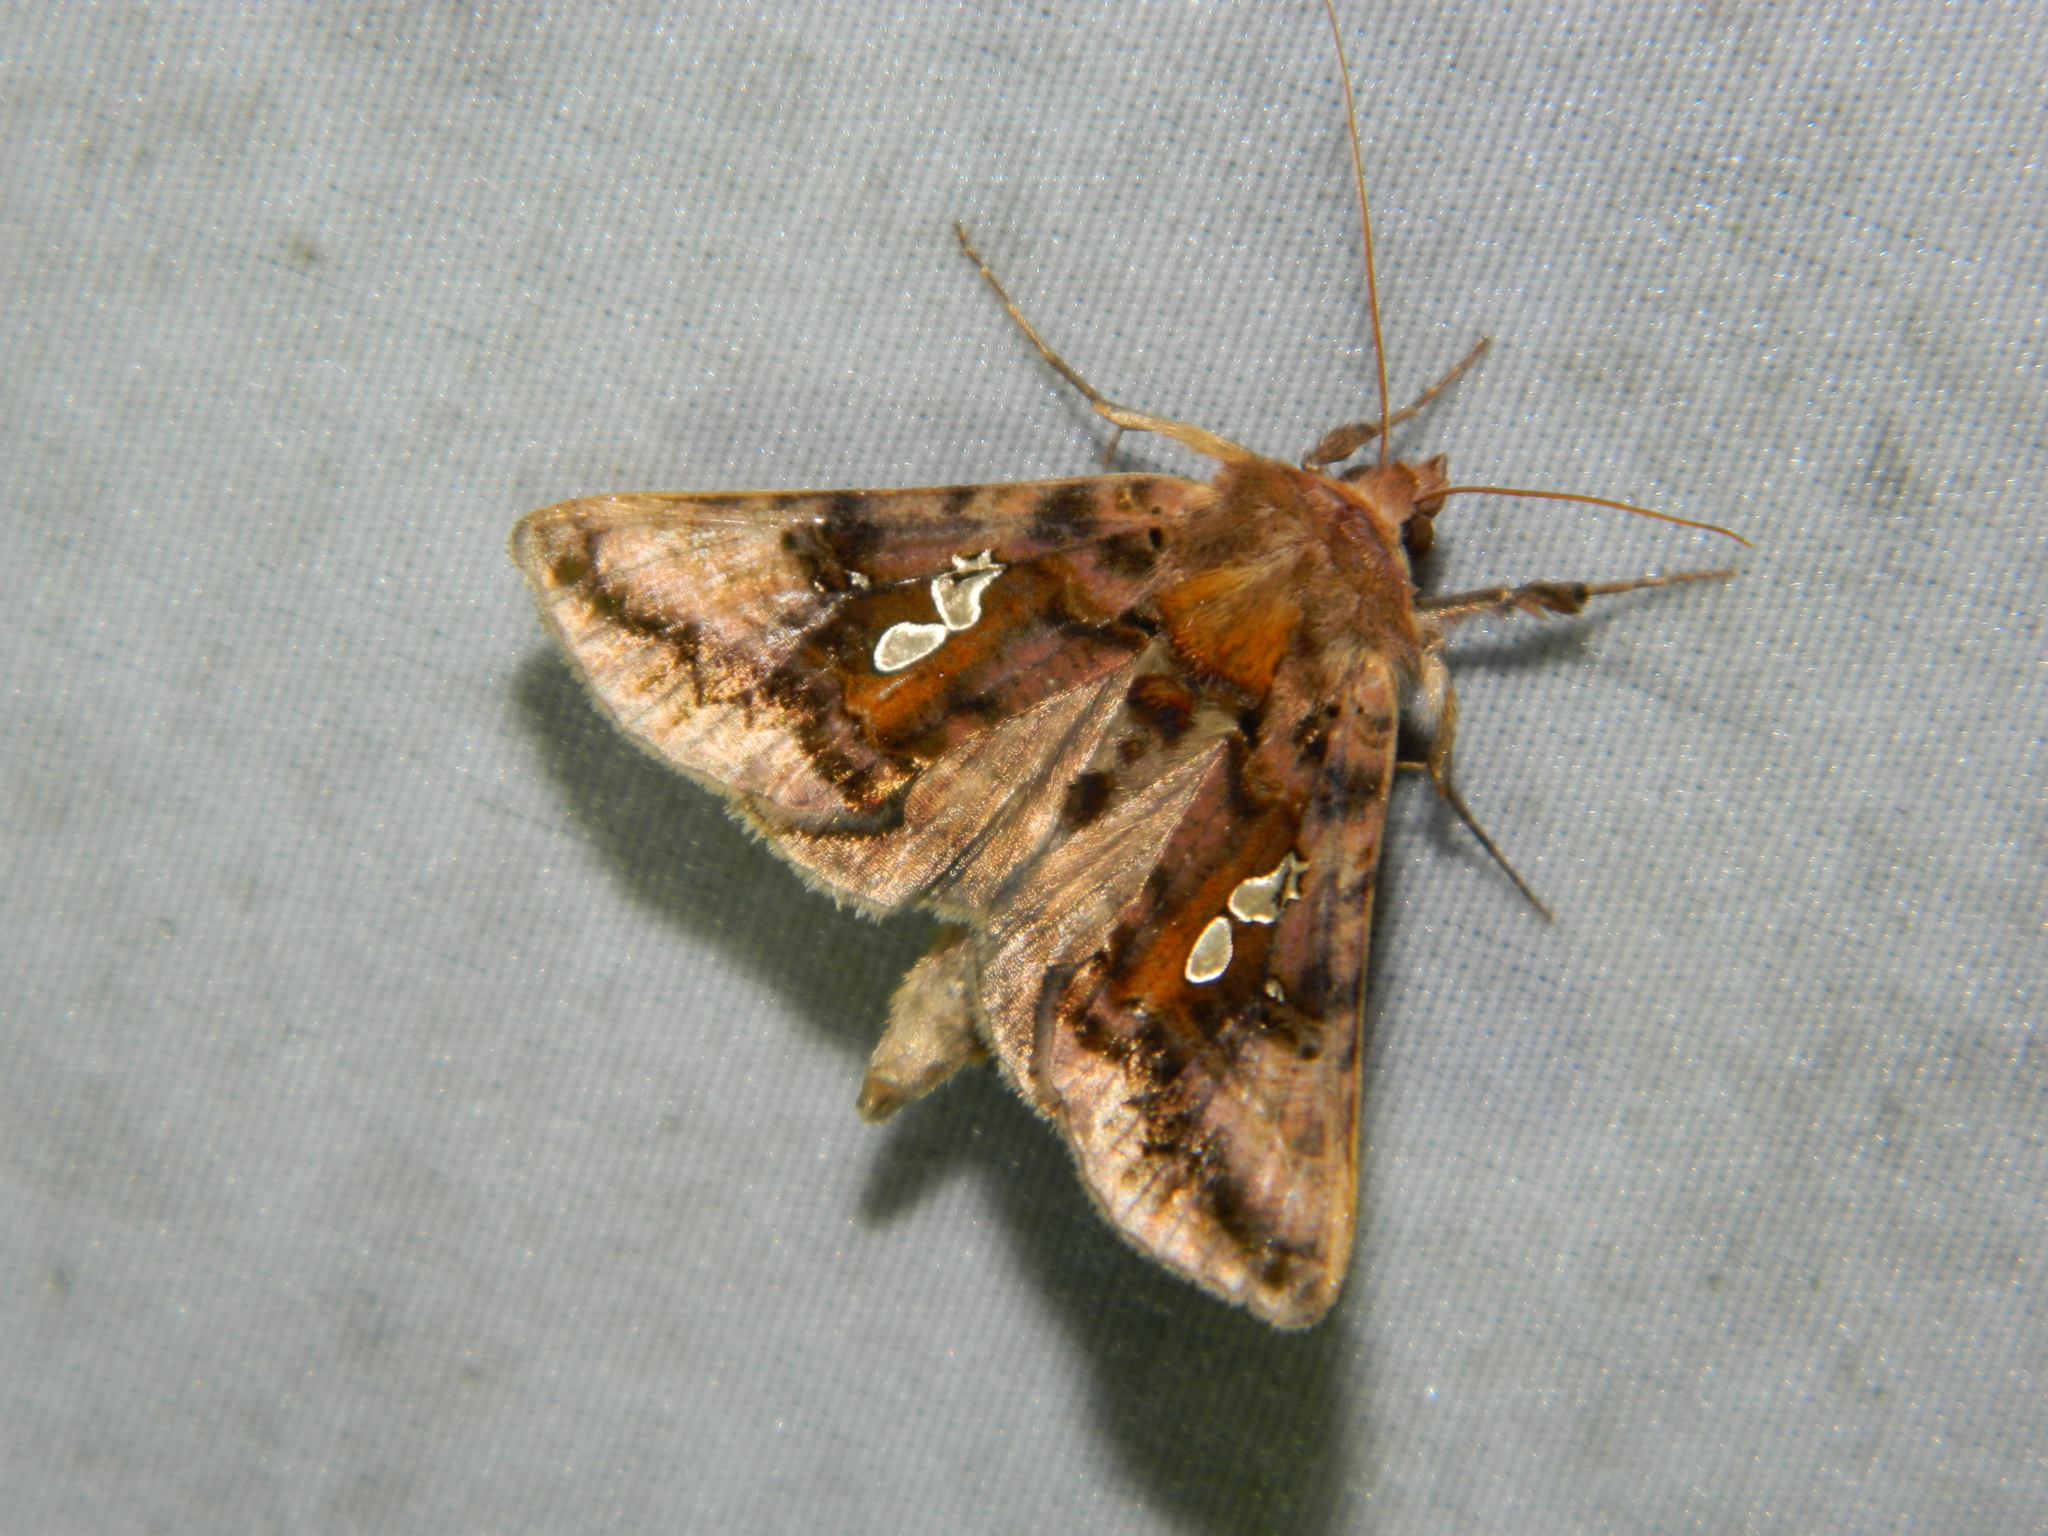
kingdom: Animalia
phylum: Arthropoda
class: Insecta
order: Lepidoptera
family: Noctuidae
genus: Autographa
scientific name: Autographa bimaculata
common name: Double-spotted spangle
